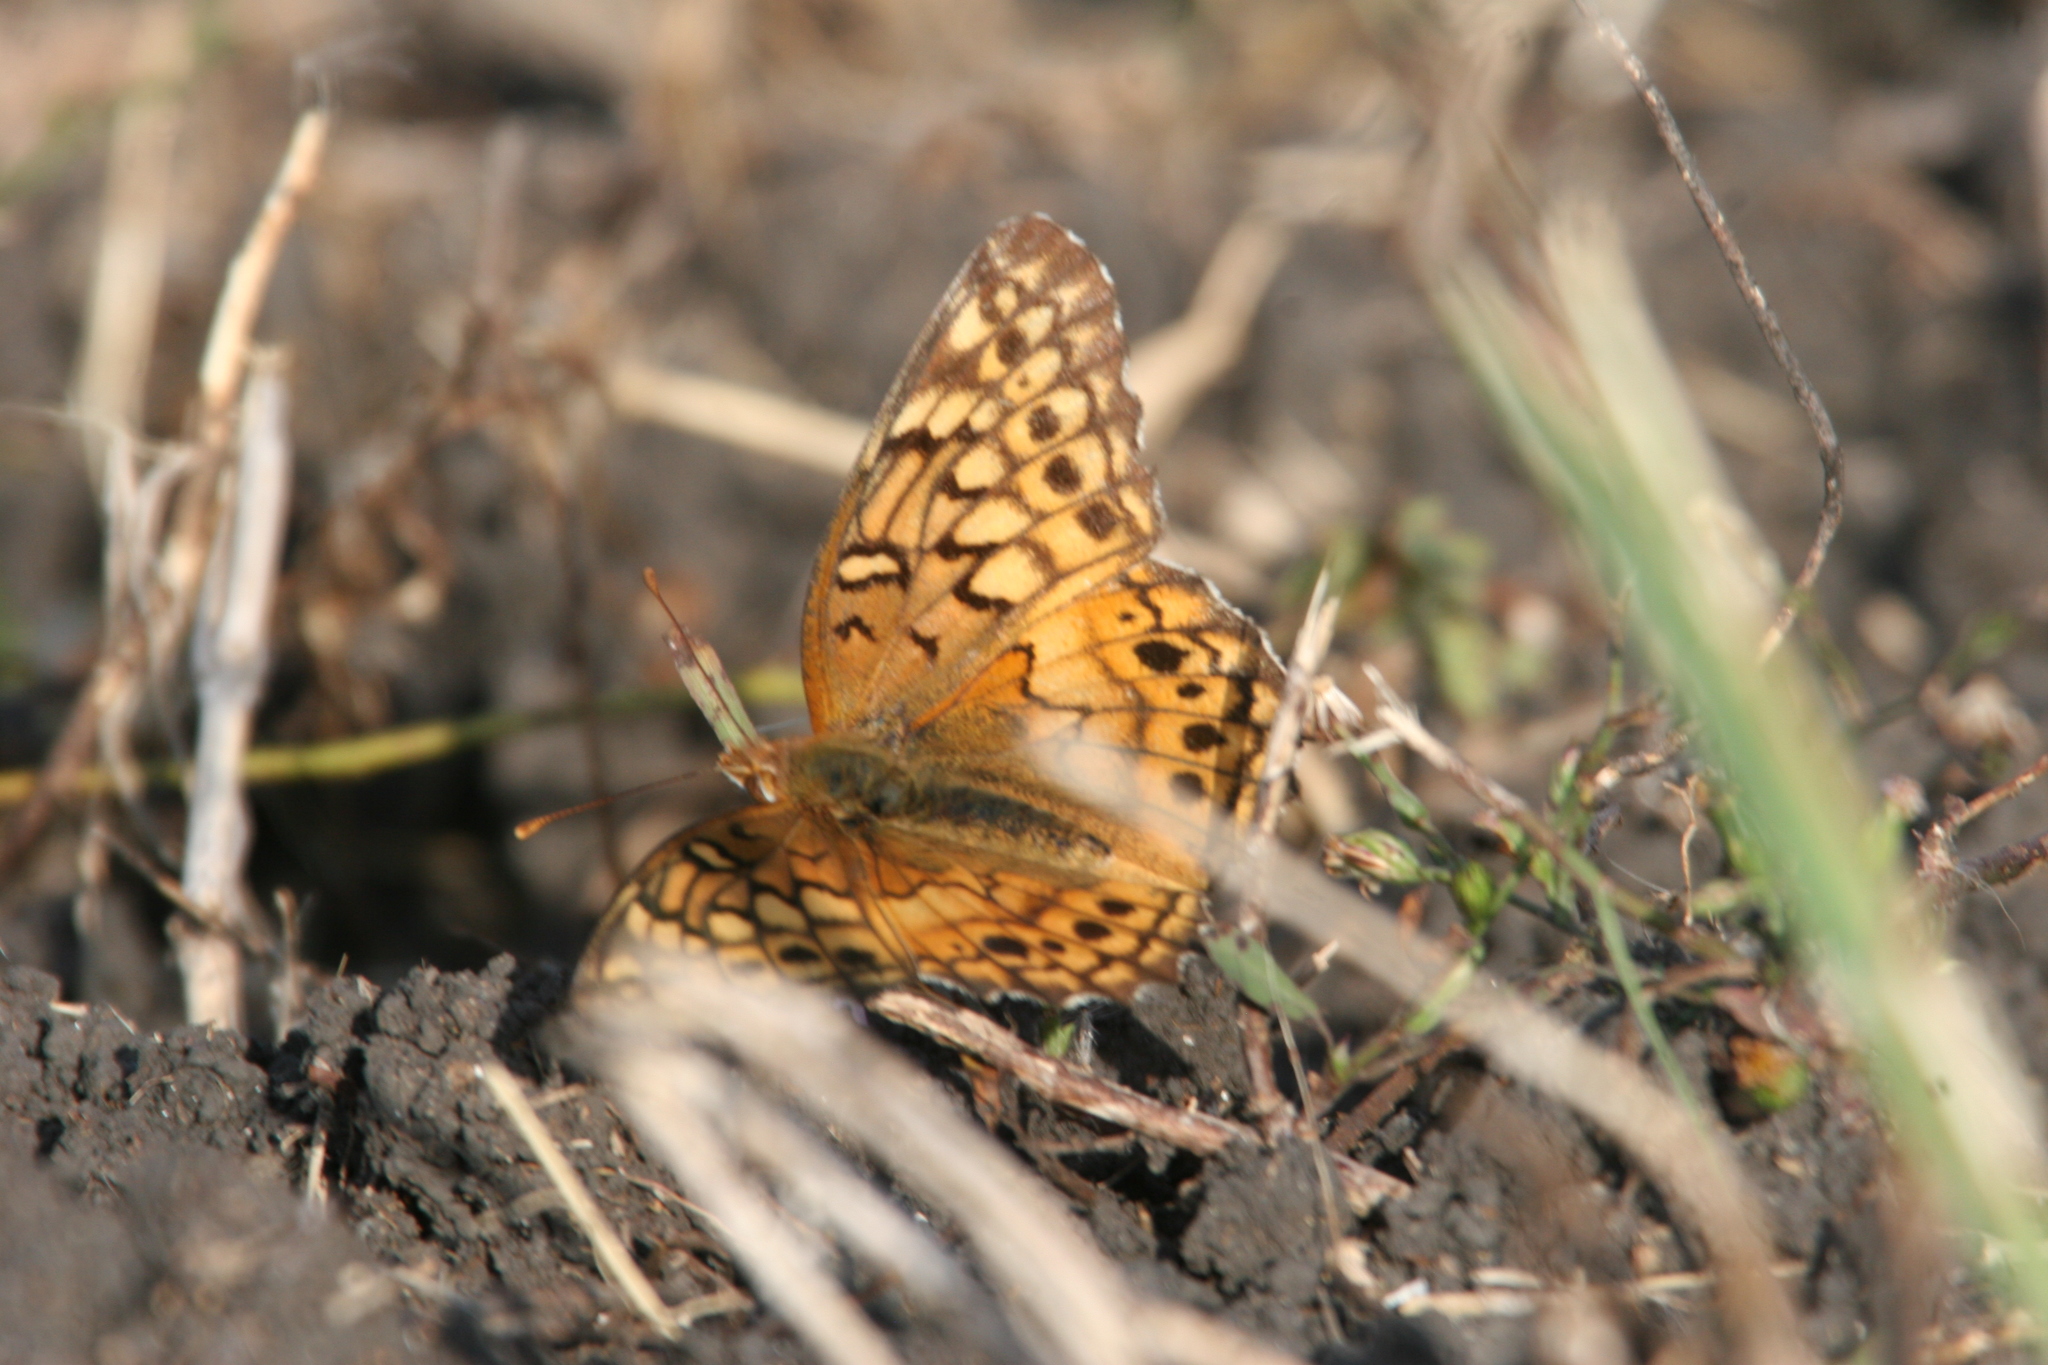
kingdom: Animalia
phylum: Arthropoda
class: Insecta
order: Lepidoptera
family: Nymphalidae
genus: Euptoieta
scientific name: Euptoieta claudia
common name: Variegated fritillary
